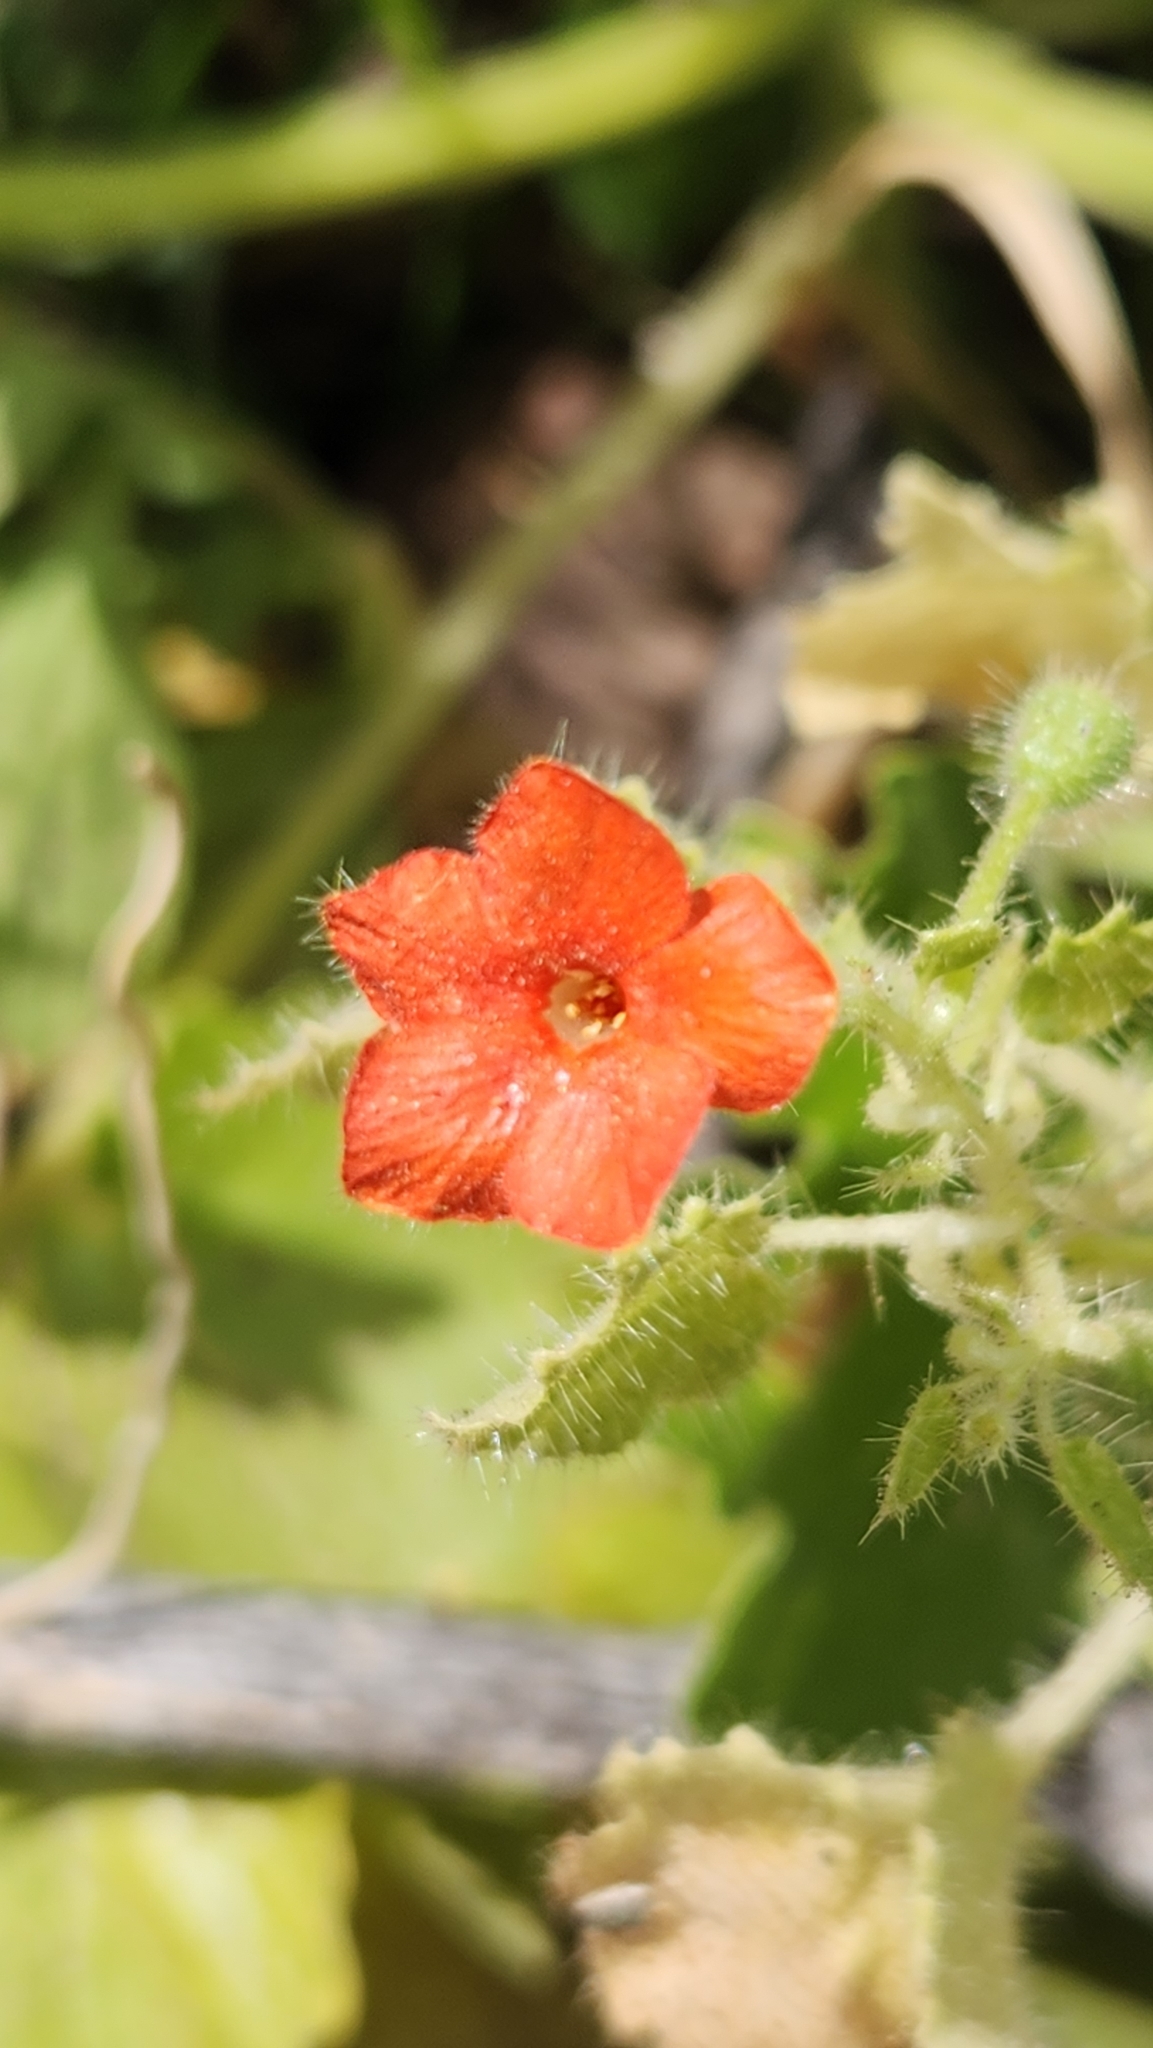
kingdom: Plantae
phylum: Tracheophyta
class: Magnoliopsida
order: Cornales
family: Loasaceae
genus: Eucnide
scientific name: Eucnide aurea
